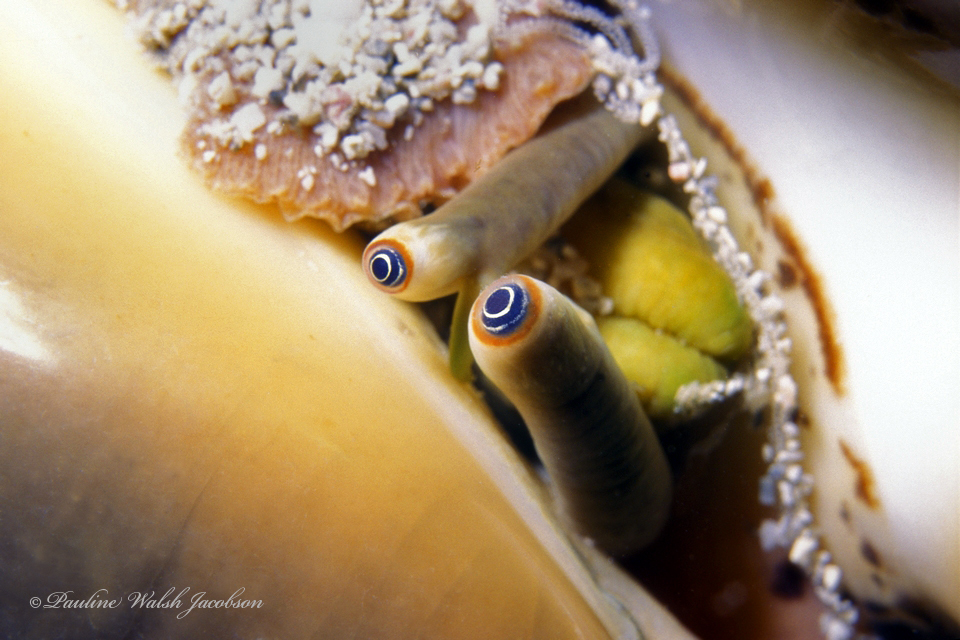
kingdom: Animalia
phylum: Mollusca
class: Gastropoda
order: Littorinimorpha
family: Strombidae
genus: Macrostrombus
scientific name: Macrostrombus costatus
